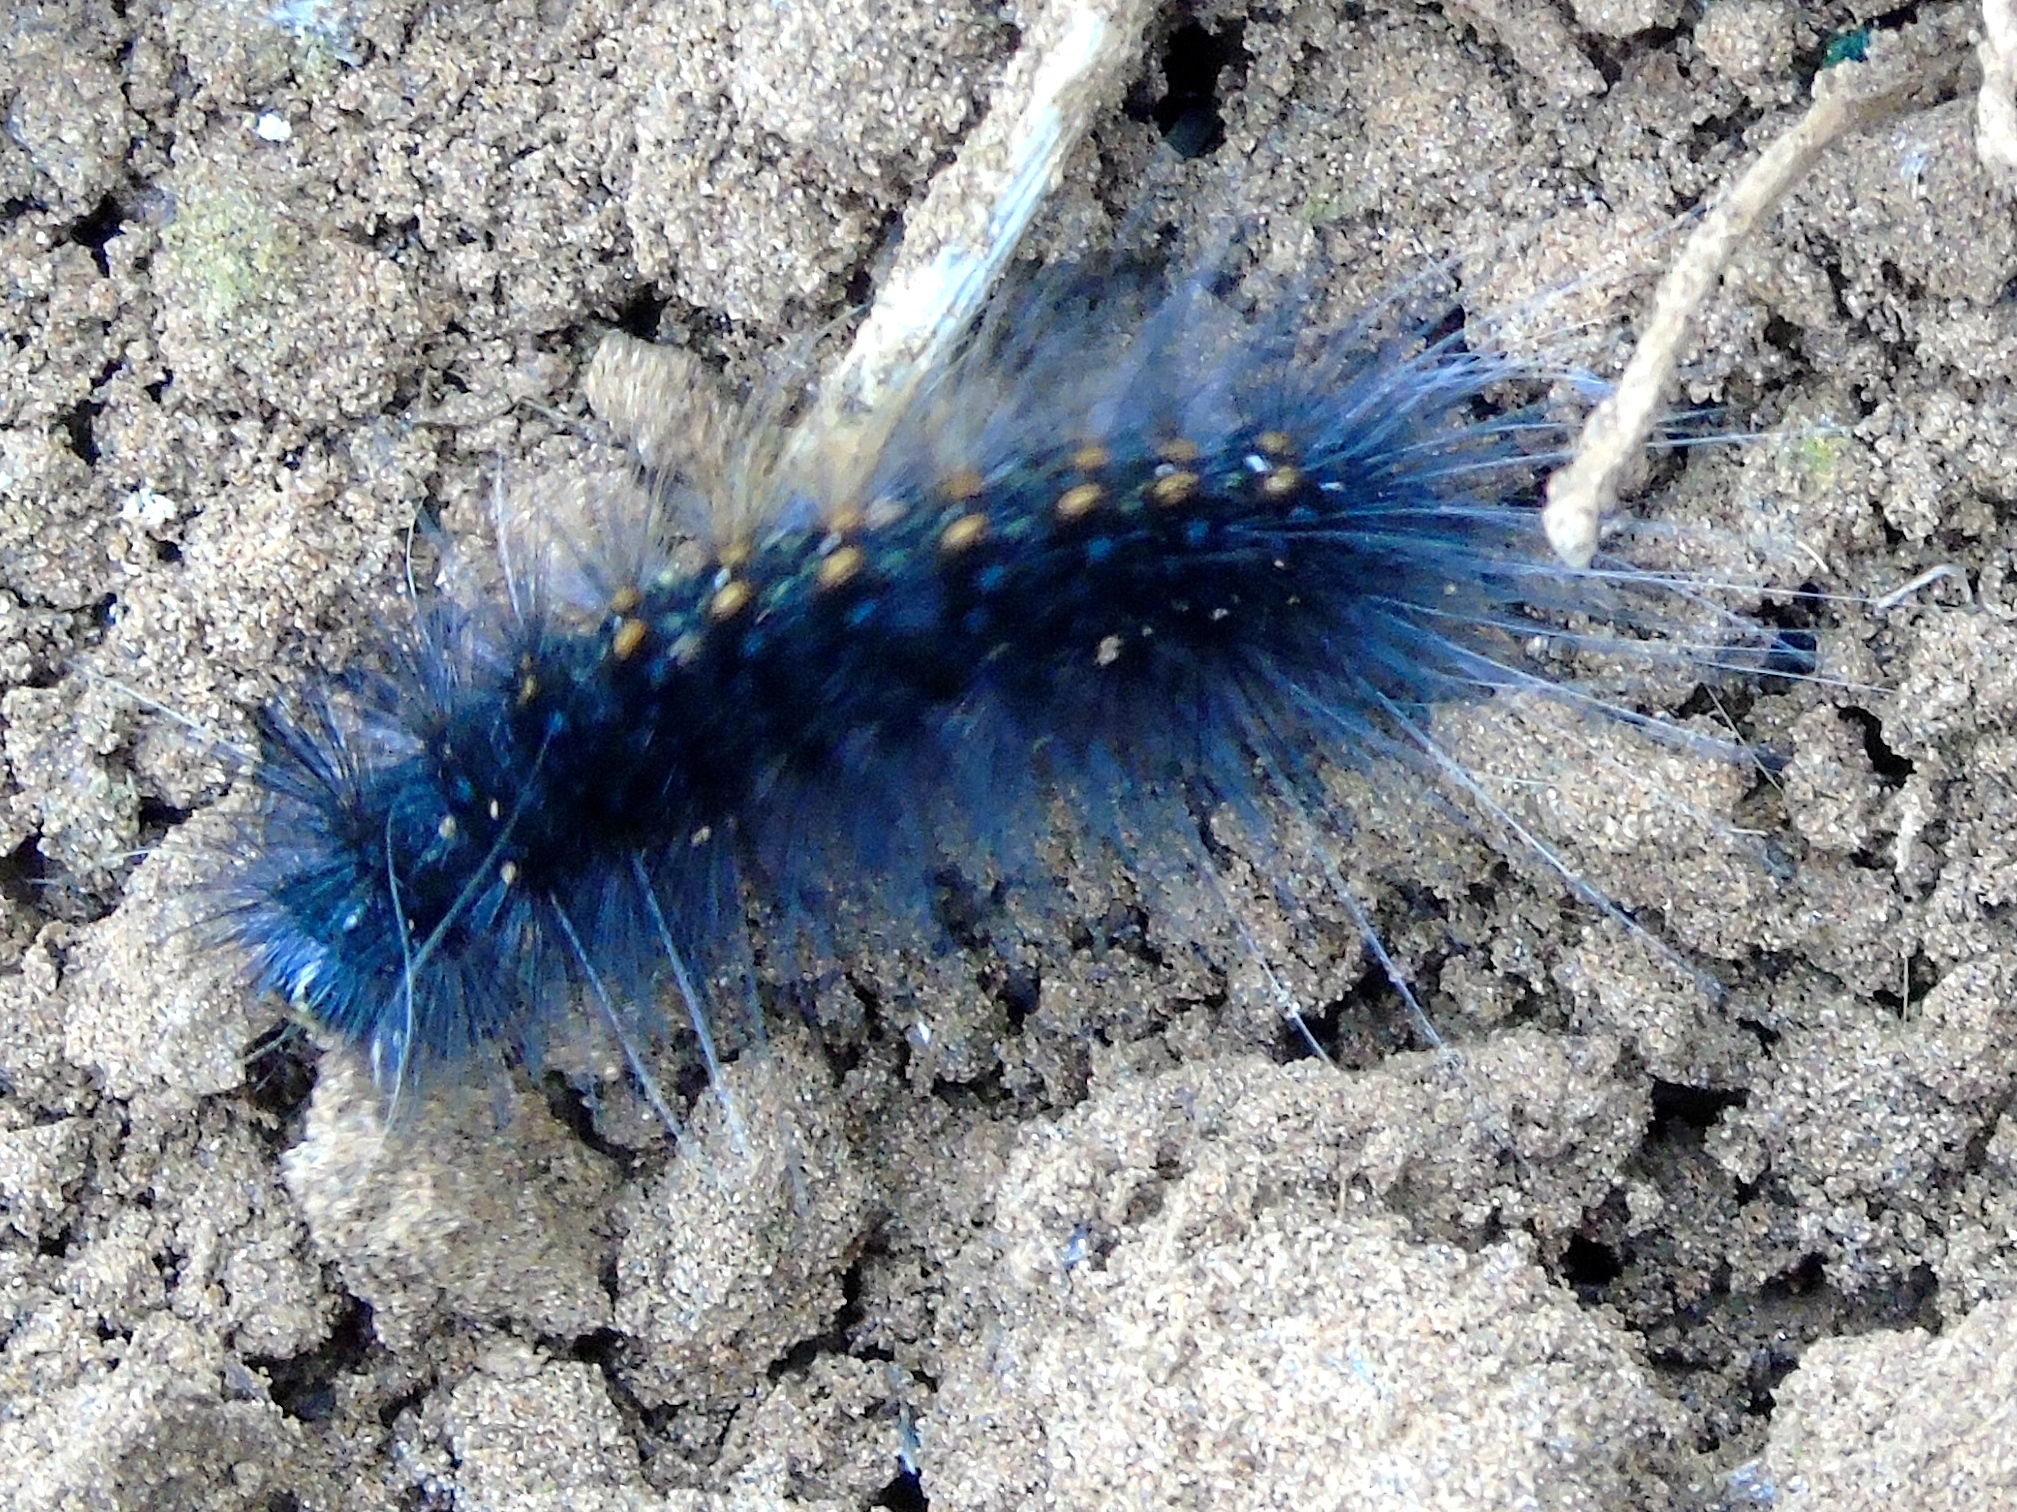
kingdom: Animalia
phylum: Arthropoda
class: Insecta
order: Lepidoptera
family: Erebidae
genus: Estigmene
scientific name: Estigmene acrea
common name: Salt marsh moth
